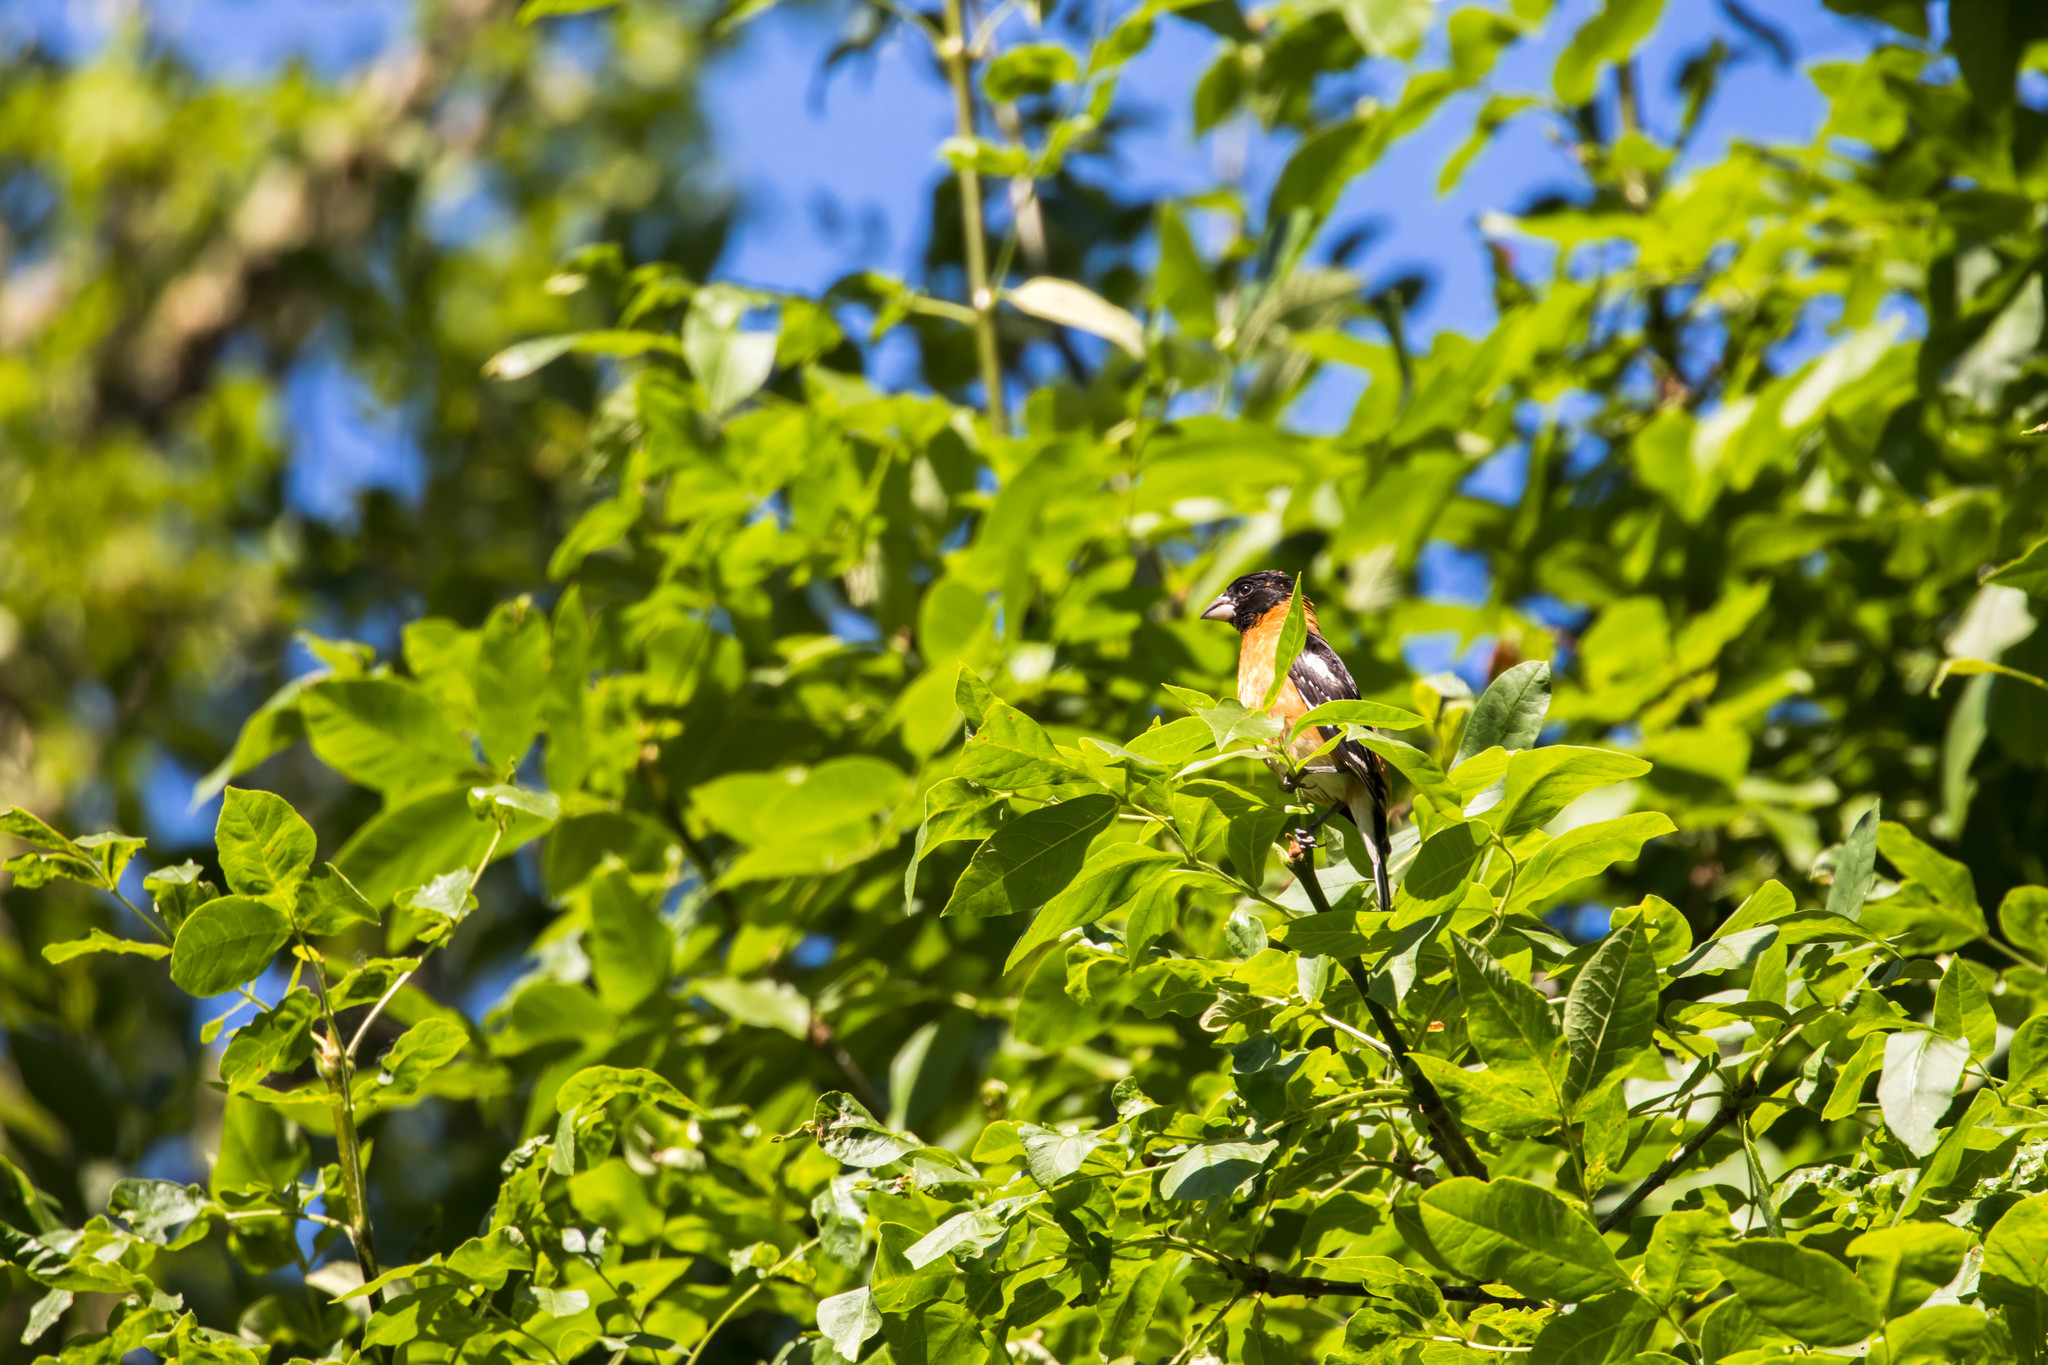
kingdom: Animalia
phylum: Chordata
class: Aves
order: Passeriformes
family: Cardinalidae
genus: Pheucticus
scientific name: Pheucticus melanocephalus
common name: Black-headed grosbeak
